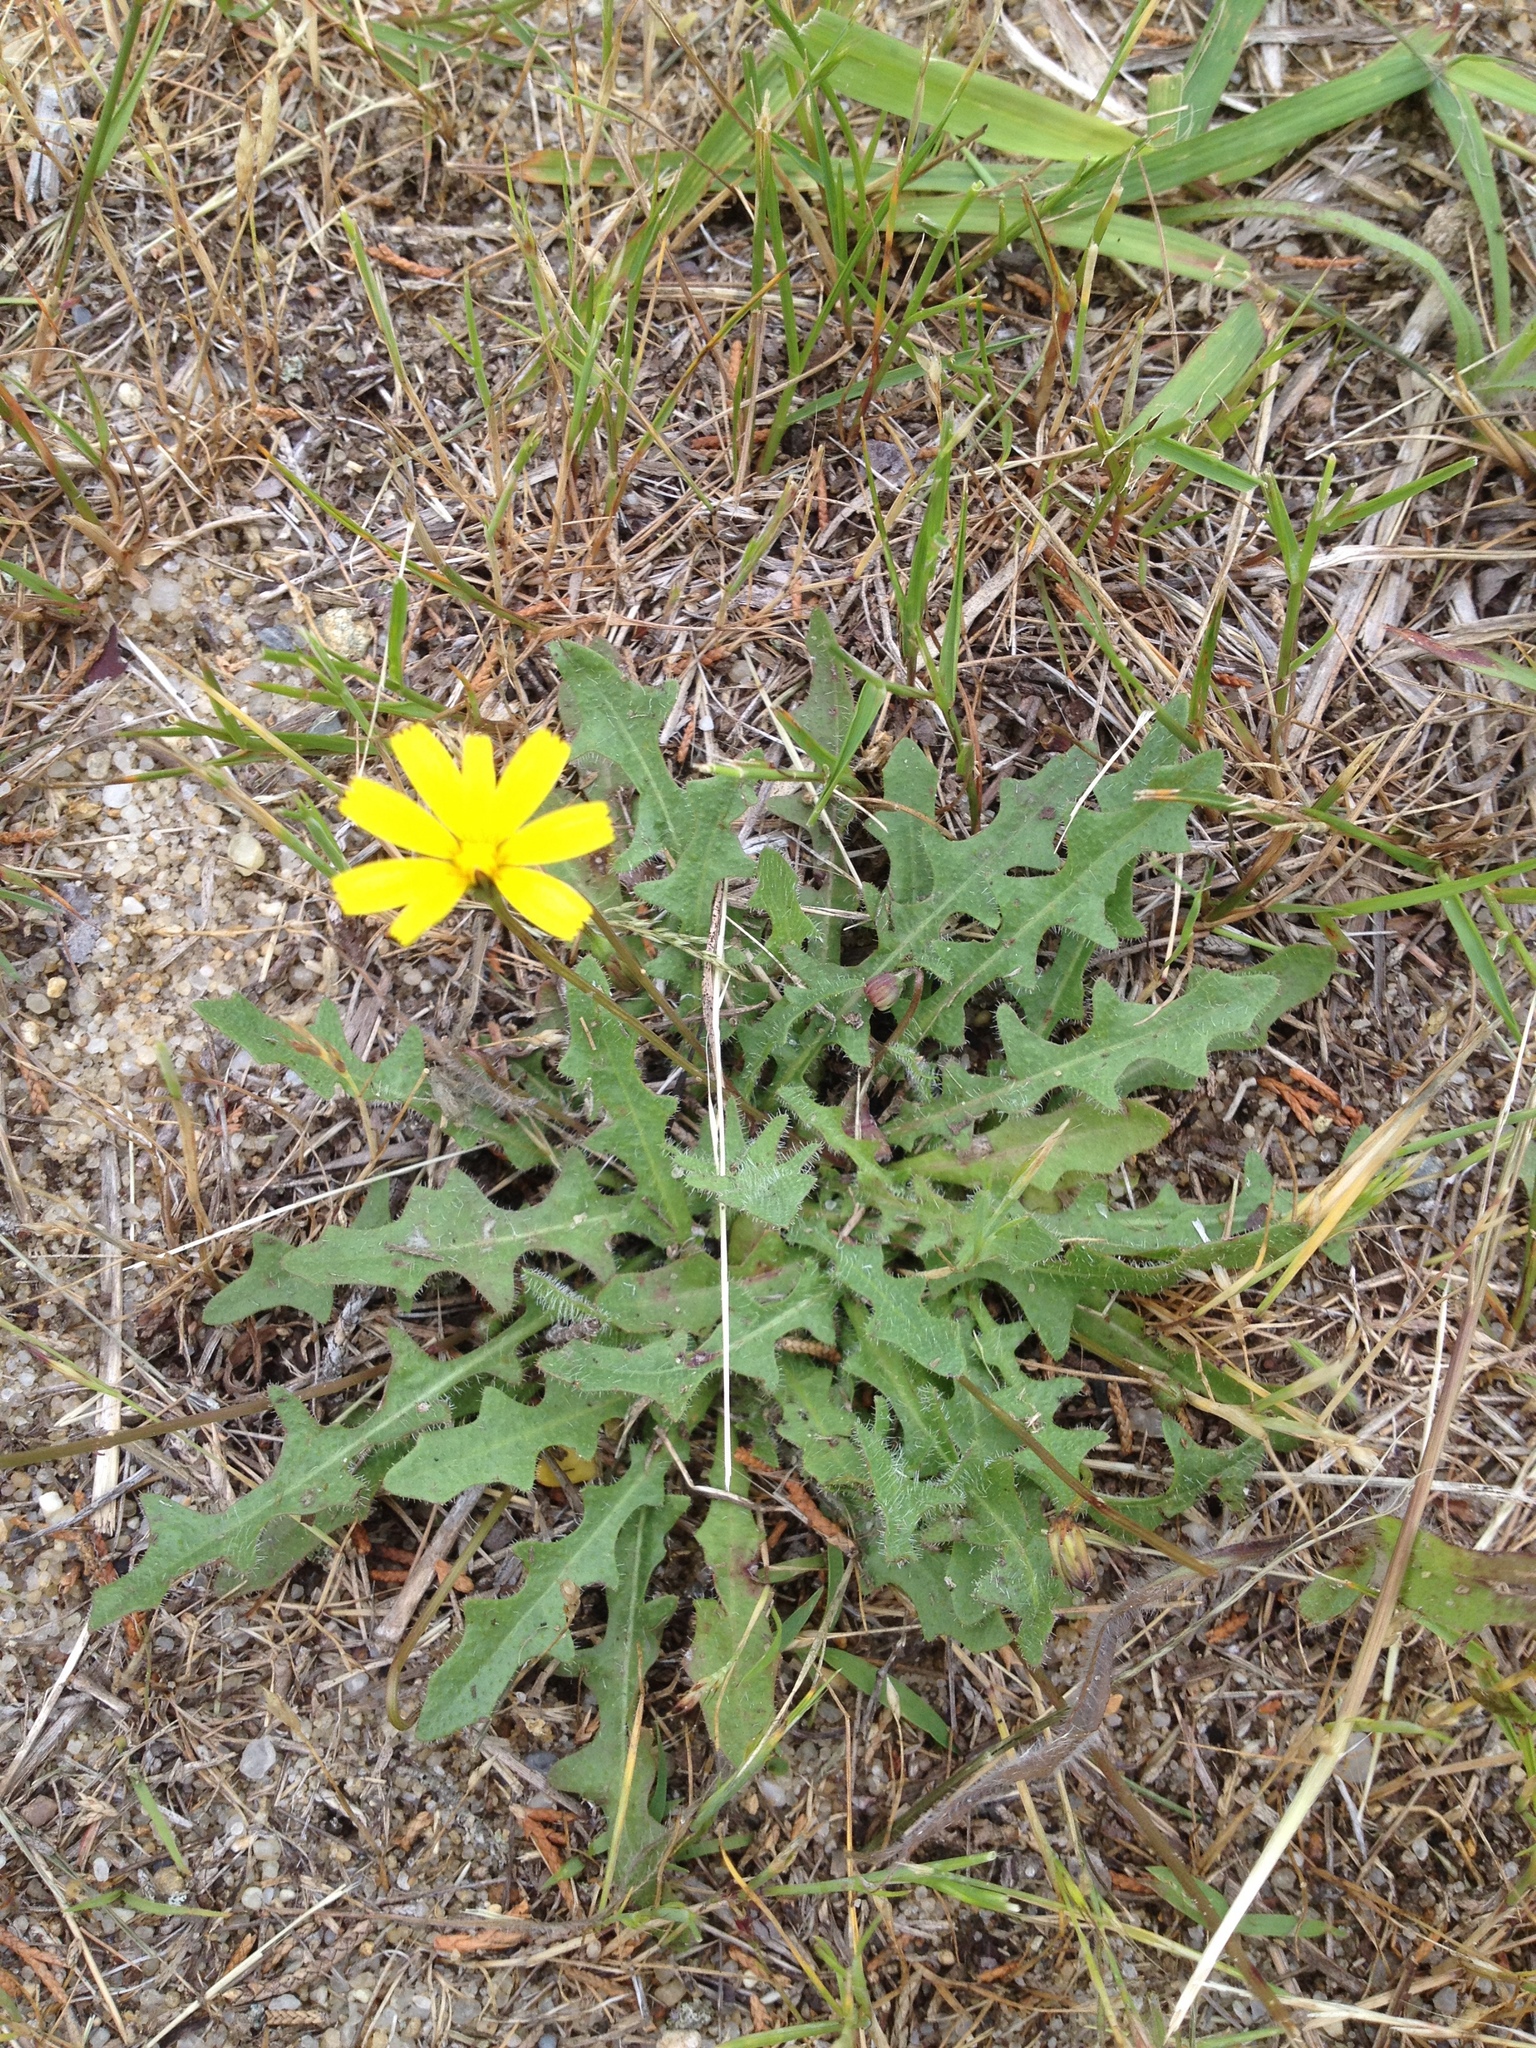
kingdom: Plantae
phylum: Tracheophyta
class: Magnoliopsida
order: Asterales
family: Asteraceae
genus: Hypochaeris
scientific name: Hypochaeris radicata
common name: Flatweed
